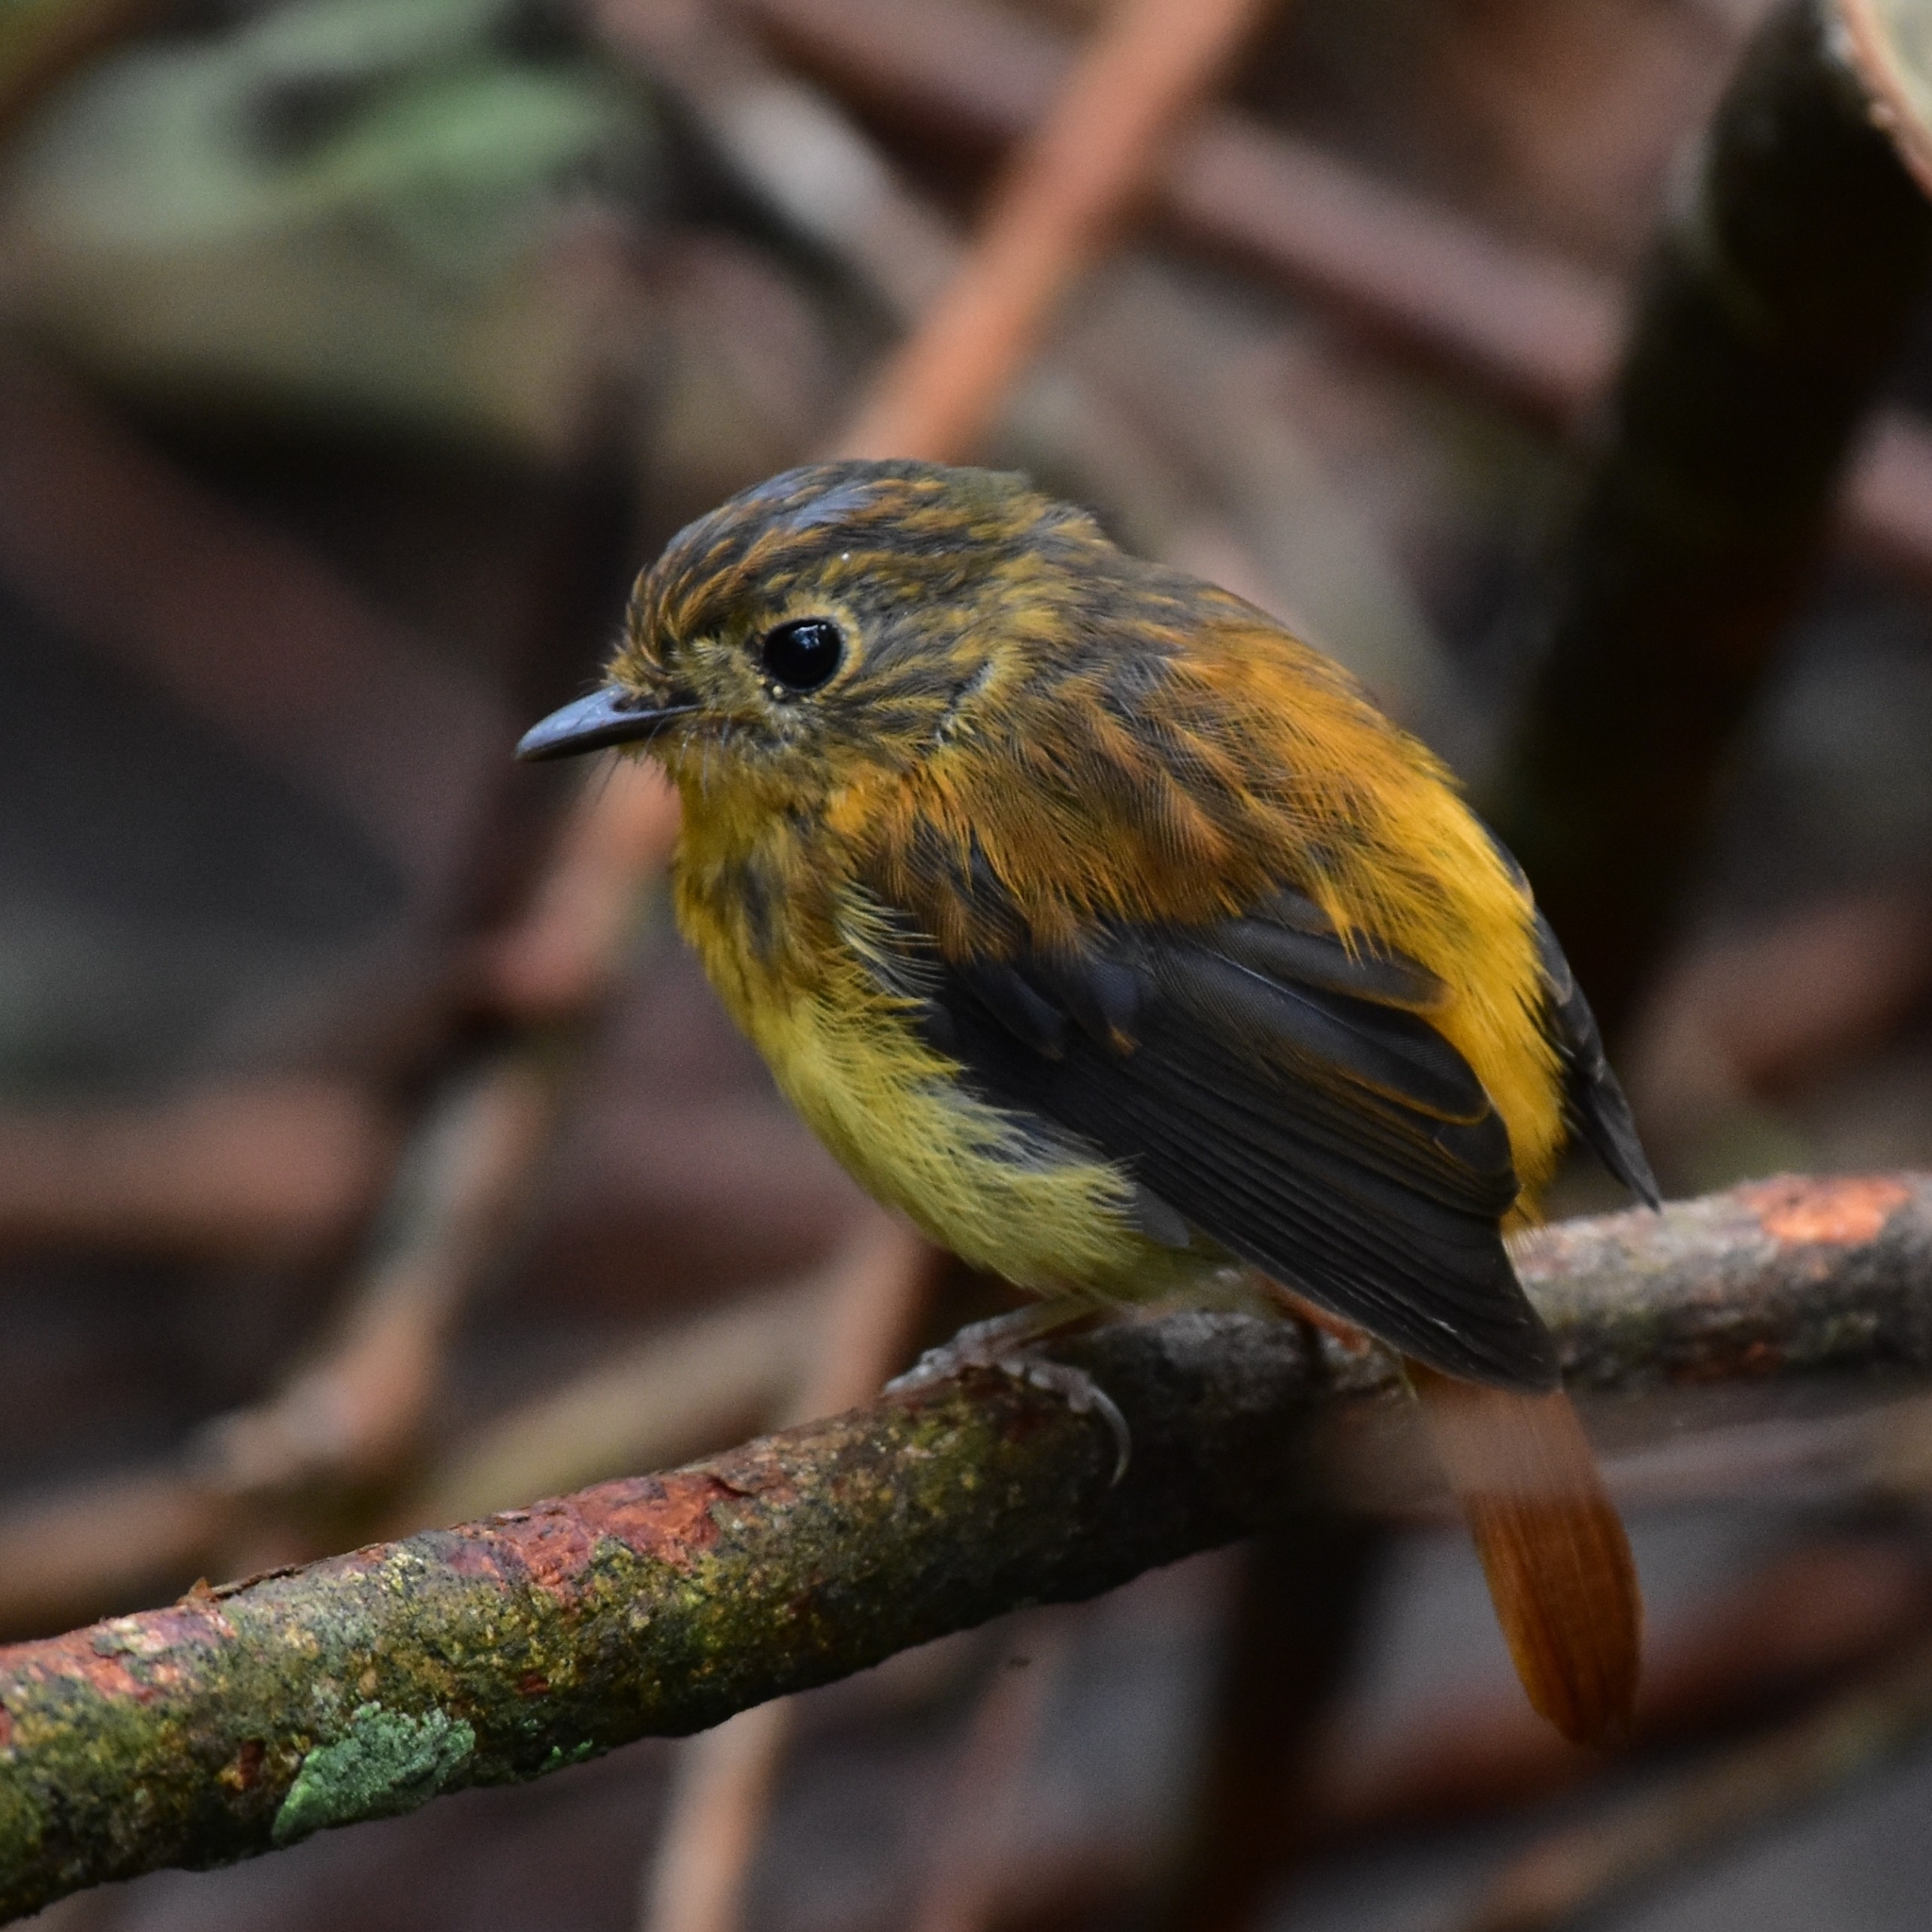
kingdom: Animalia
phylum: Chordata
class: Aves
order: Passeriformes
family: Muscicapidae
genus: Ficedula
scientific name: Ficedula nigrorufa
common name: Black-and-orange flycatcher
